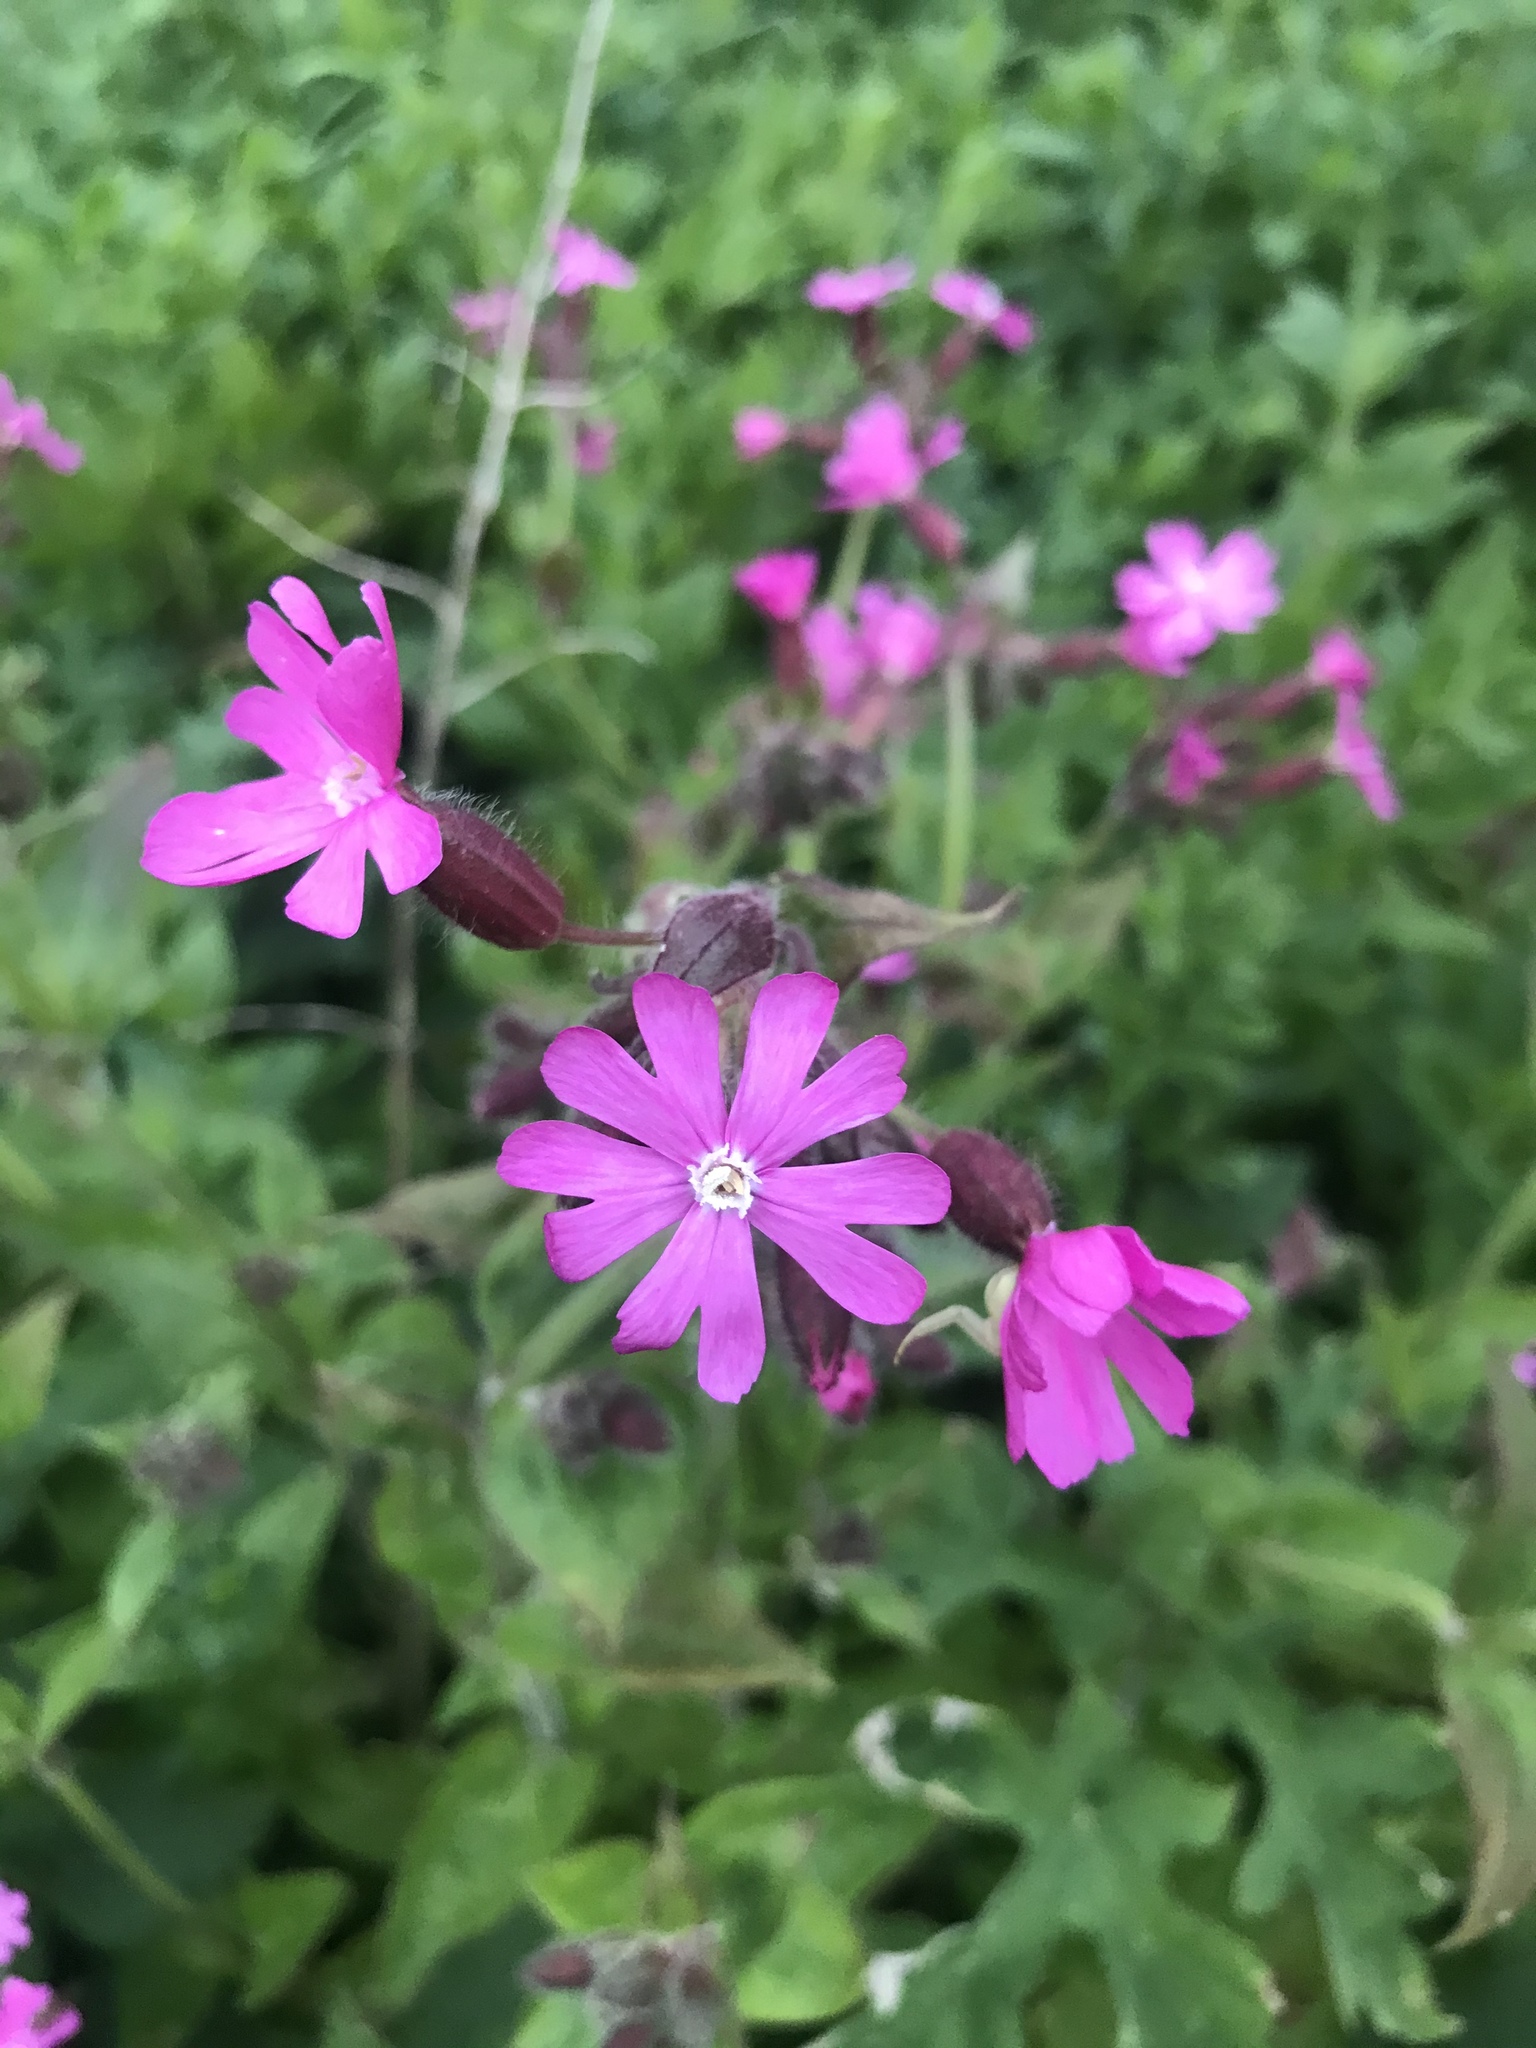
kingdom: Plantae
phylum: Tracheophyta
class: Magnoliopsida
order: Caryophyllales
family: Caryophyllaceae
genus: Silene
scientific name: Silene dioica
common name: Red campion
